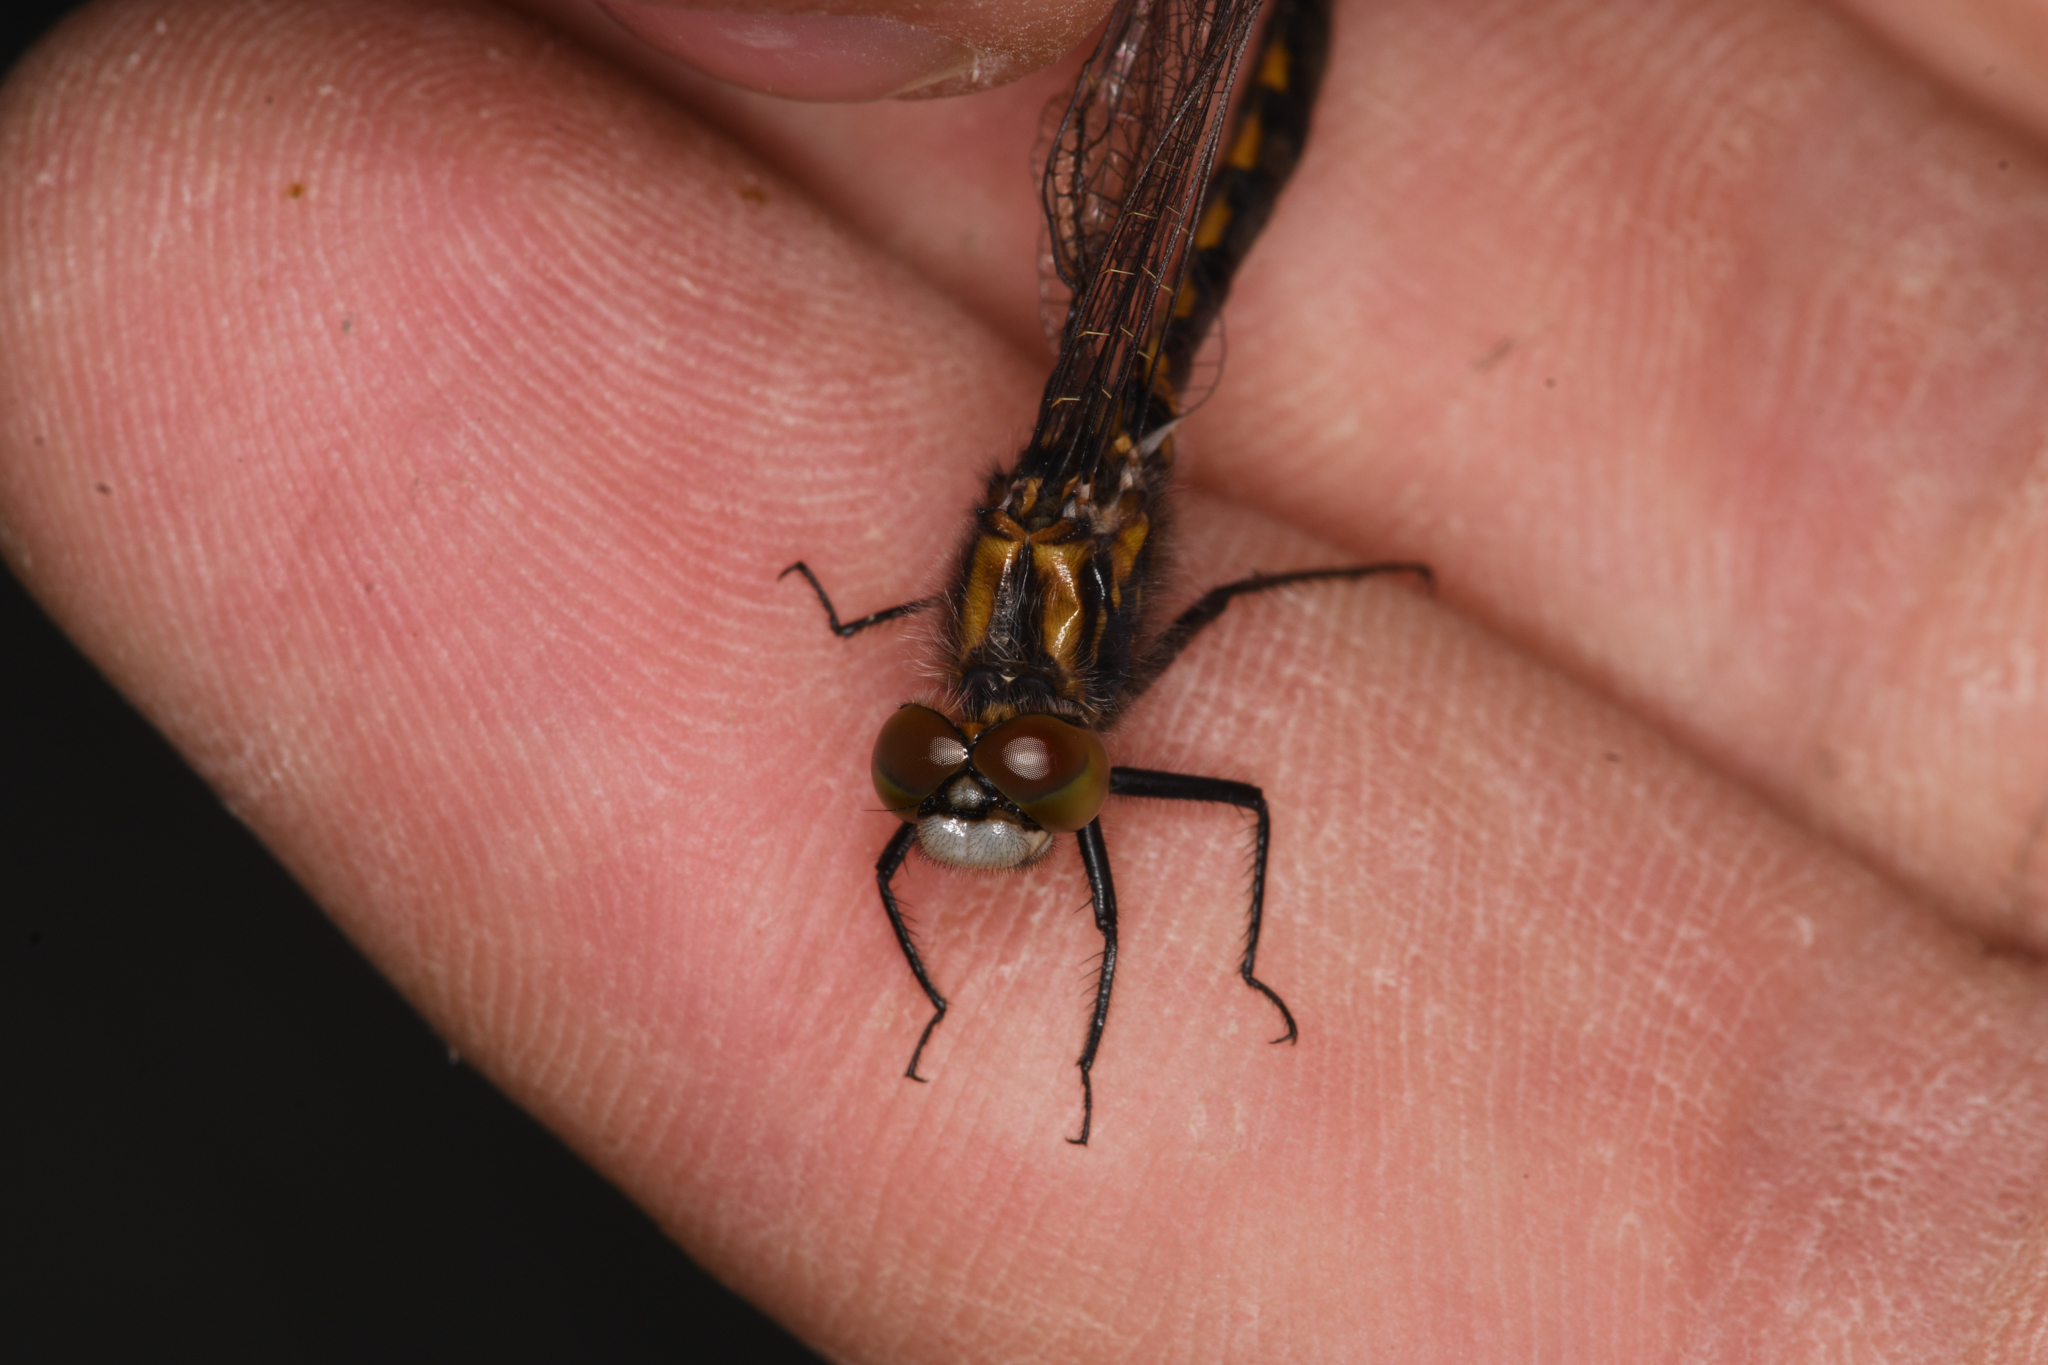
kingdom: Animalia
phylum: Arthropoda
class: Insecta
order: Odonata
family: Libellulidae
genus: Leucorrhinia
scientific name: Leucorrhinia hudsonica
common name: Hudsonian whiteface
